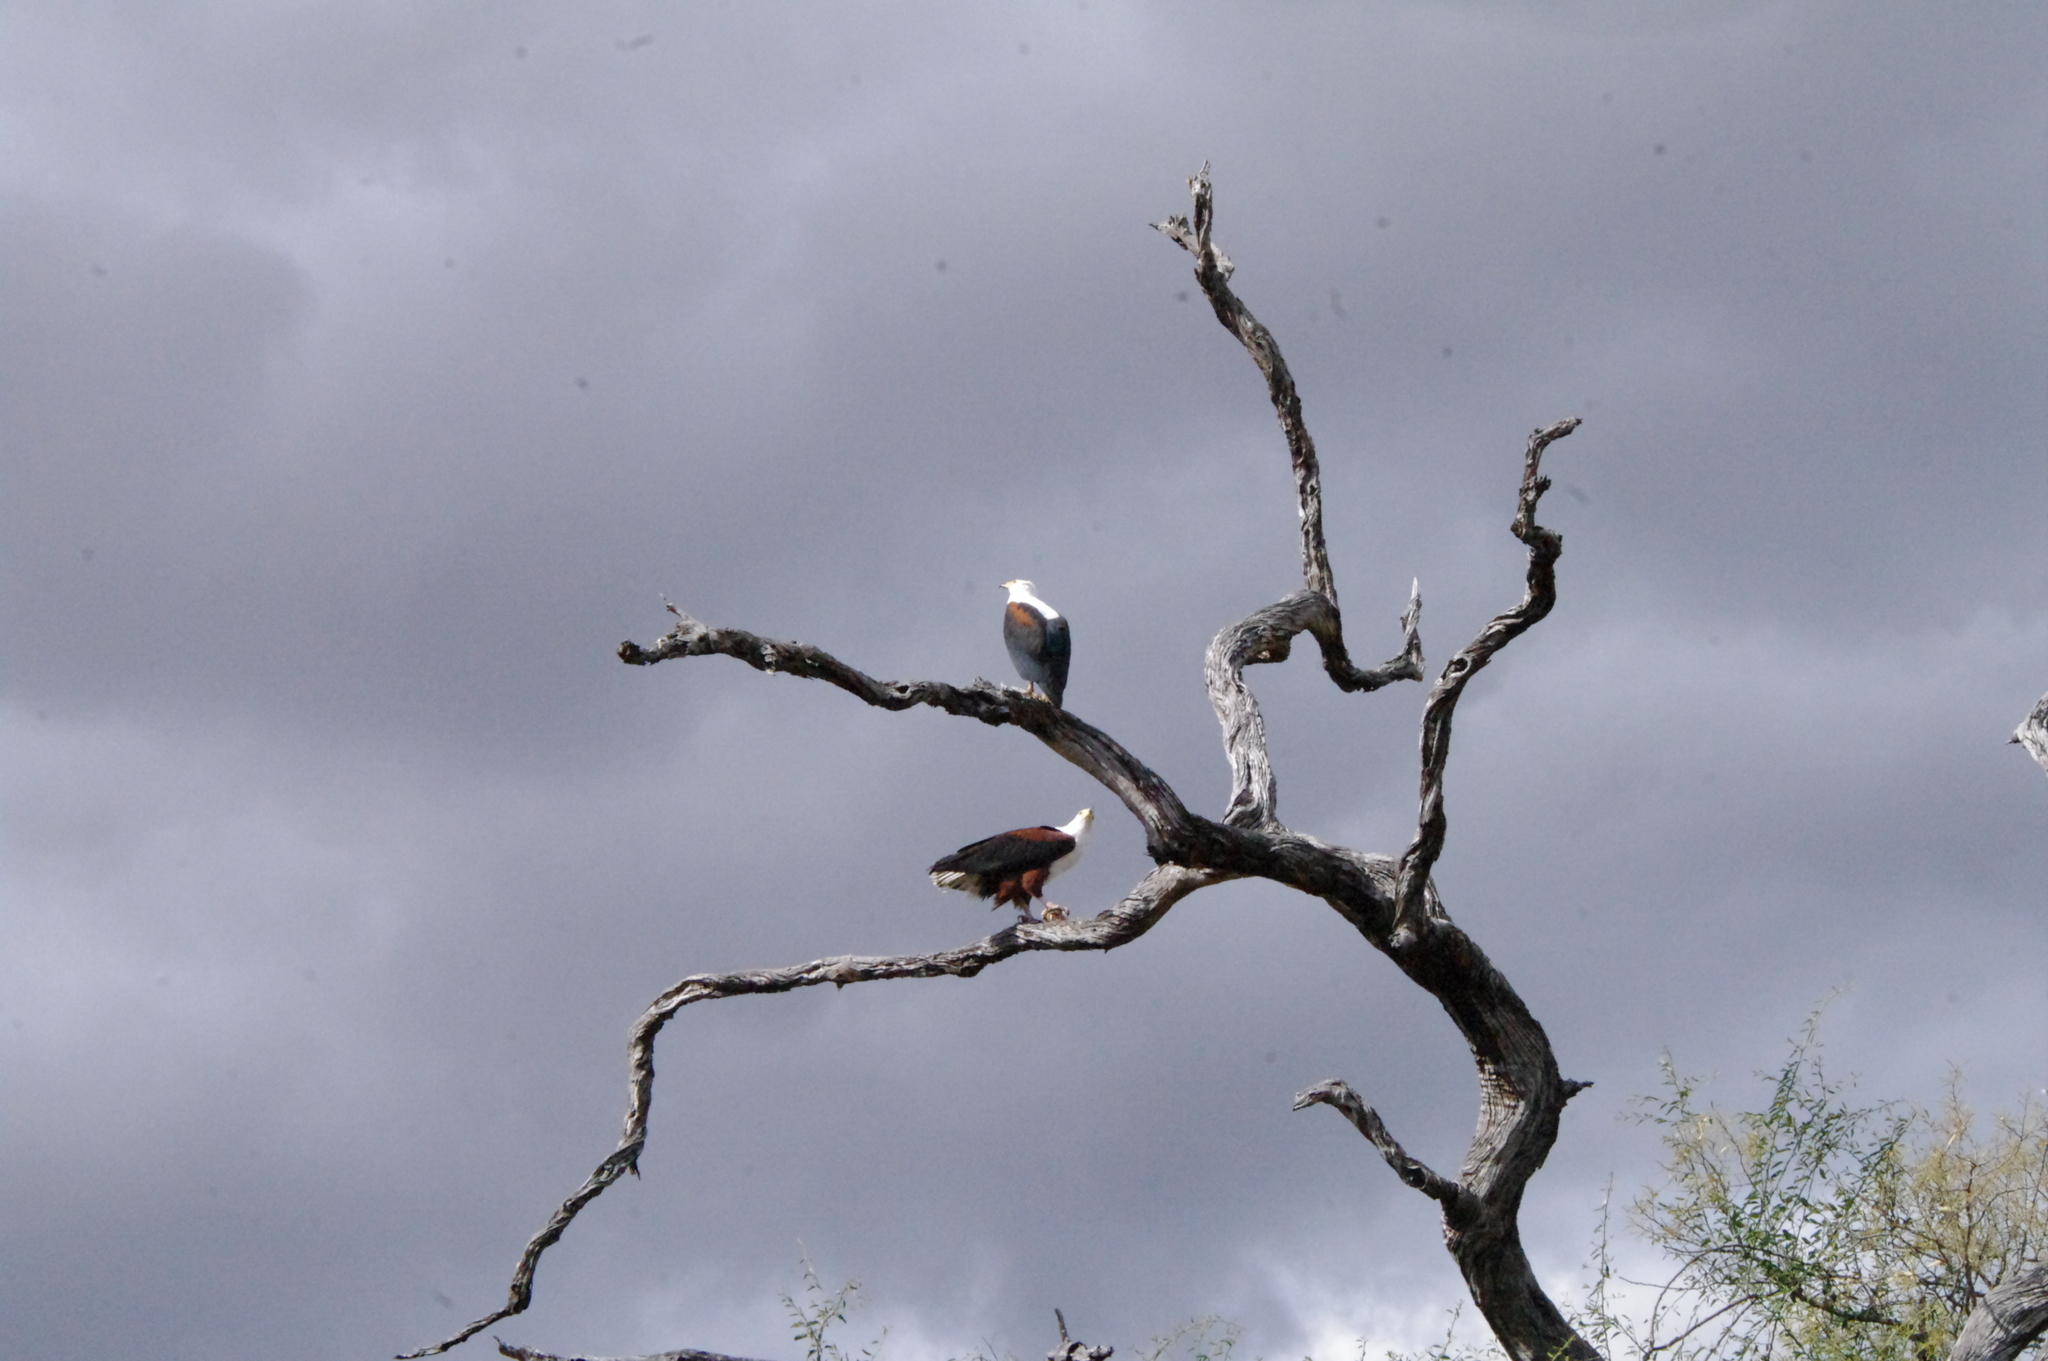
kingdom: Animalia
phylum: Chordata
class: Aves
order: Accipitriformes
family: Accipitridae
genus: Haliaeetus
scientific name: Haliaeetus vocifer
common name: African fish eagle
